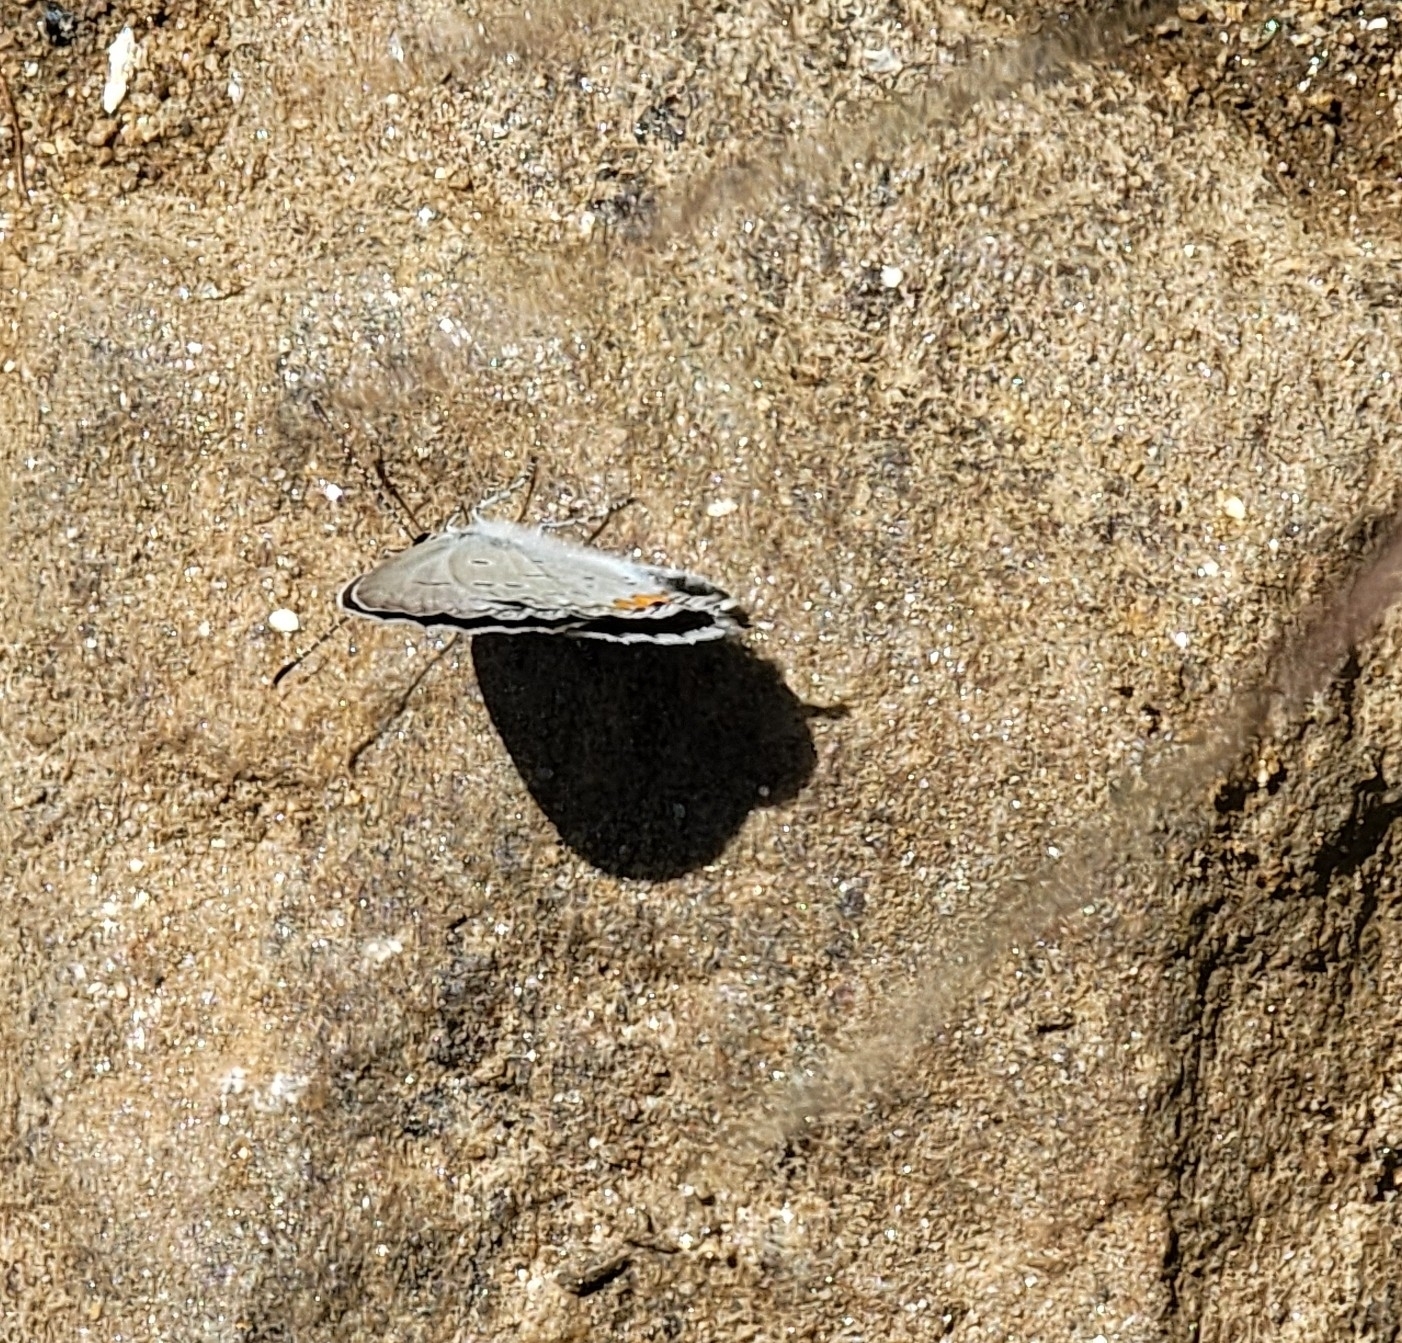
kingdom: Animalia
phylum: Arthropoda
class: Insecta
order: Lepidoptera
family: Lycaenidae
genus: Elkalyce
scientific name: Elkalyce comyntas
